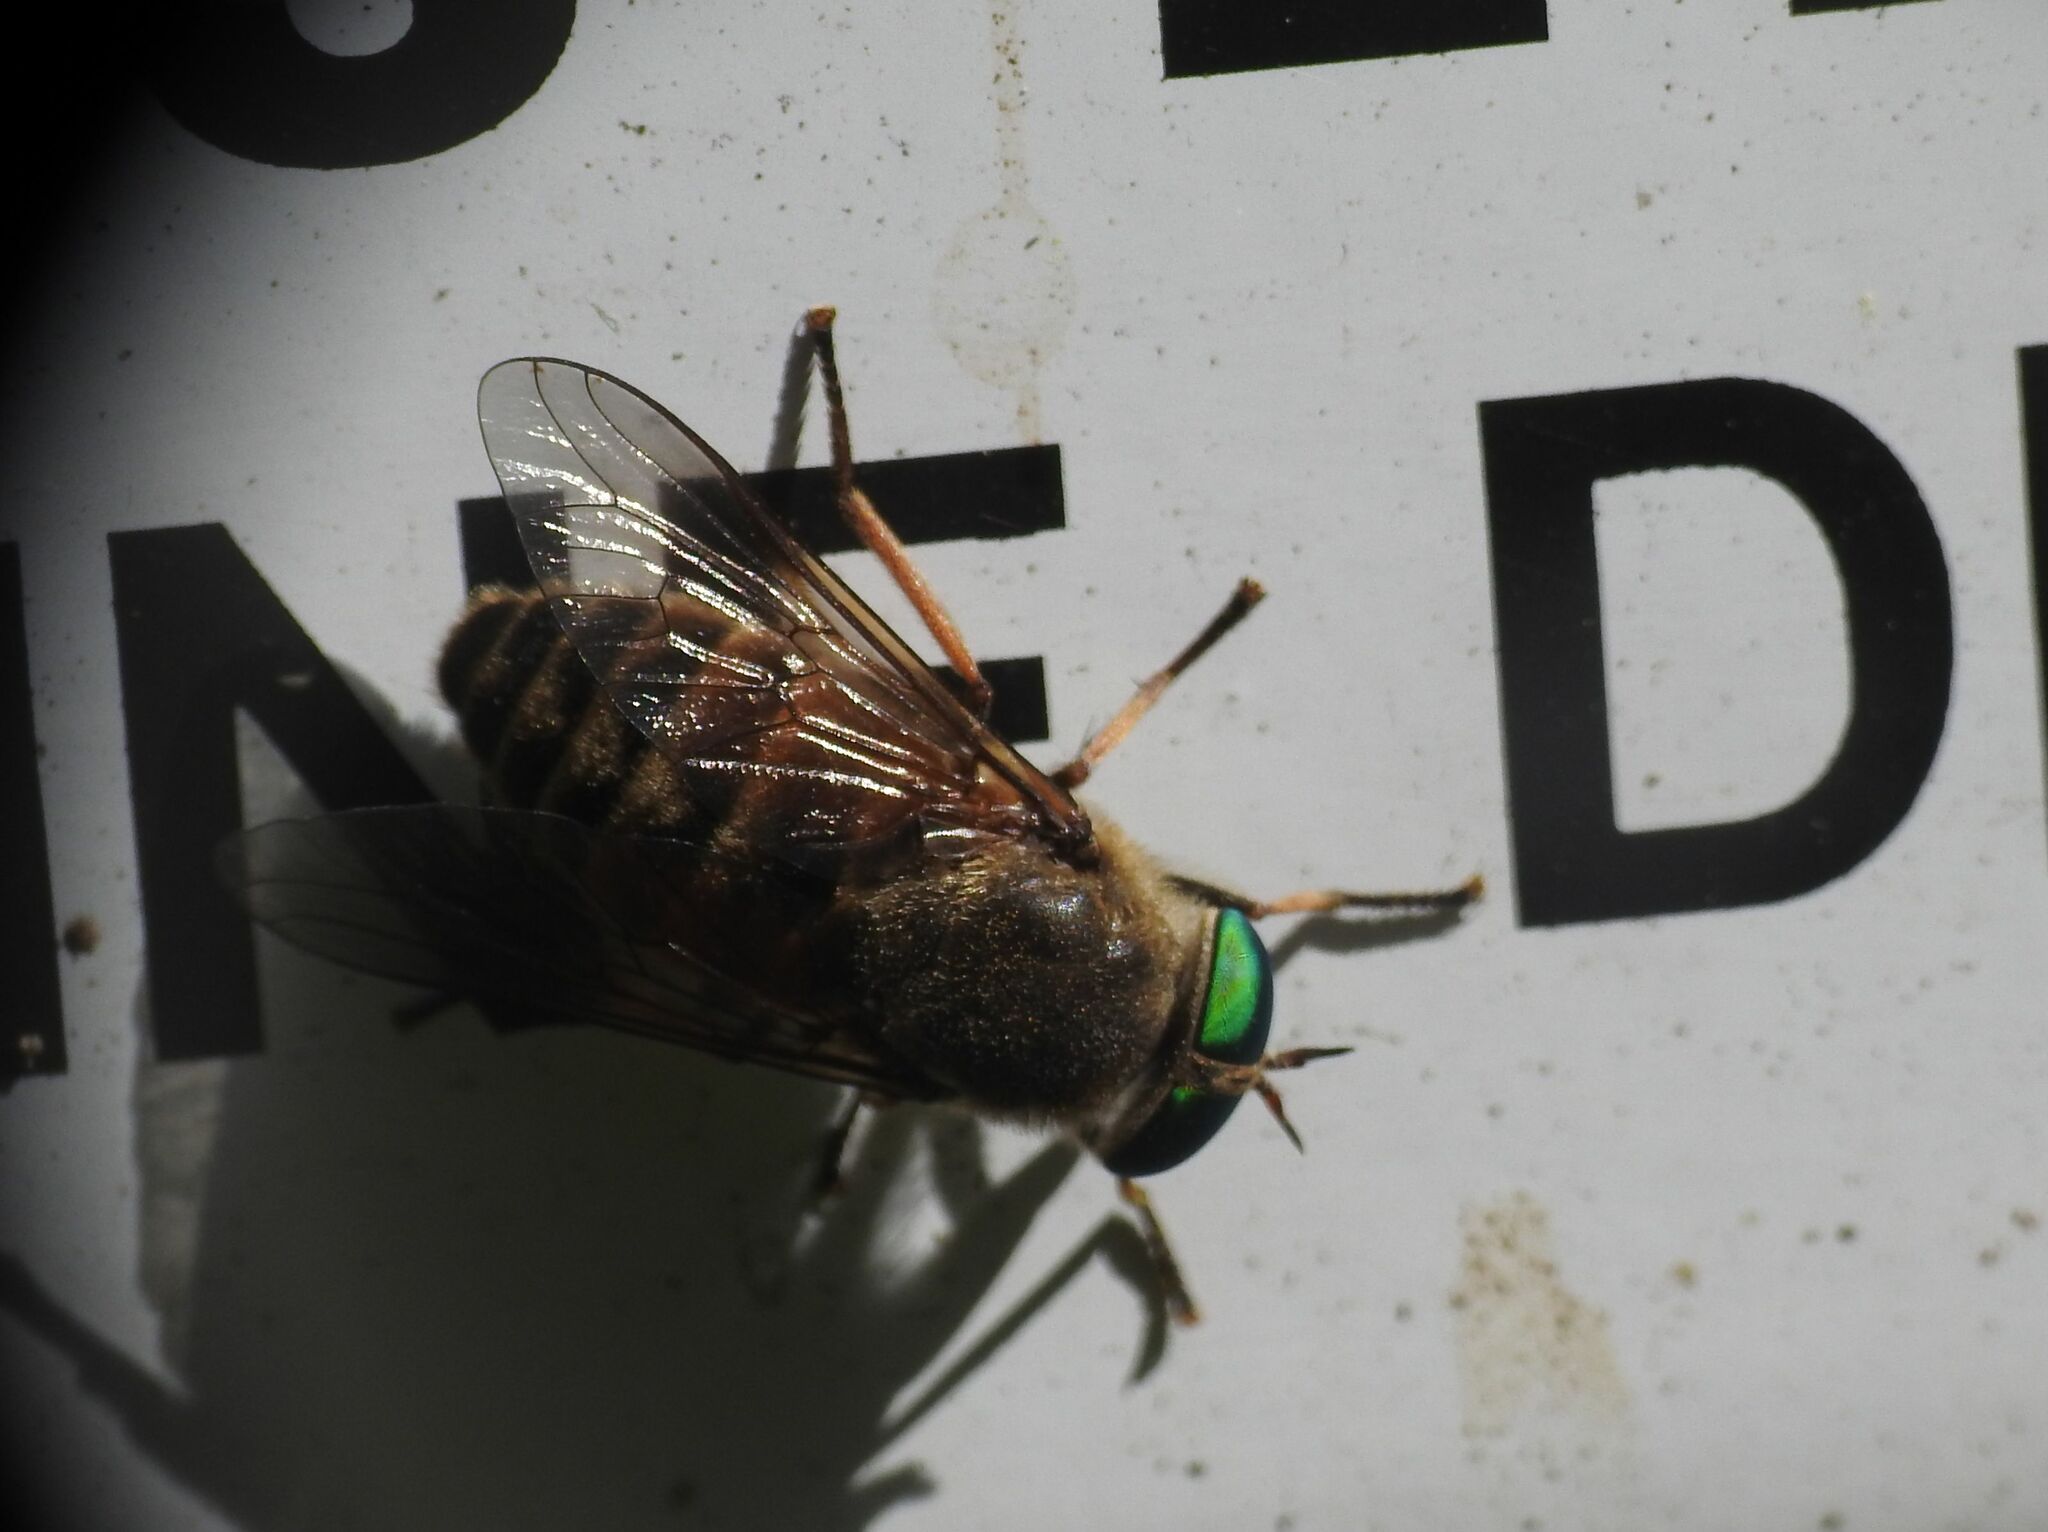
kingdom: Animalia
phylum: Arthropoda
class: Insecta
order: Diptera
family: Tabanidae
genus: Philipomyia
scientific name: Philipomyia aprica
